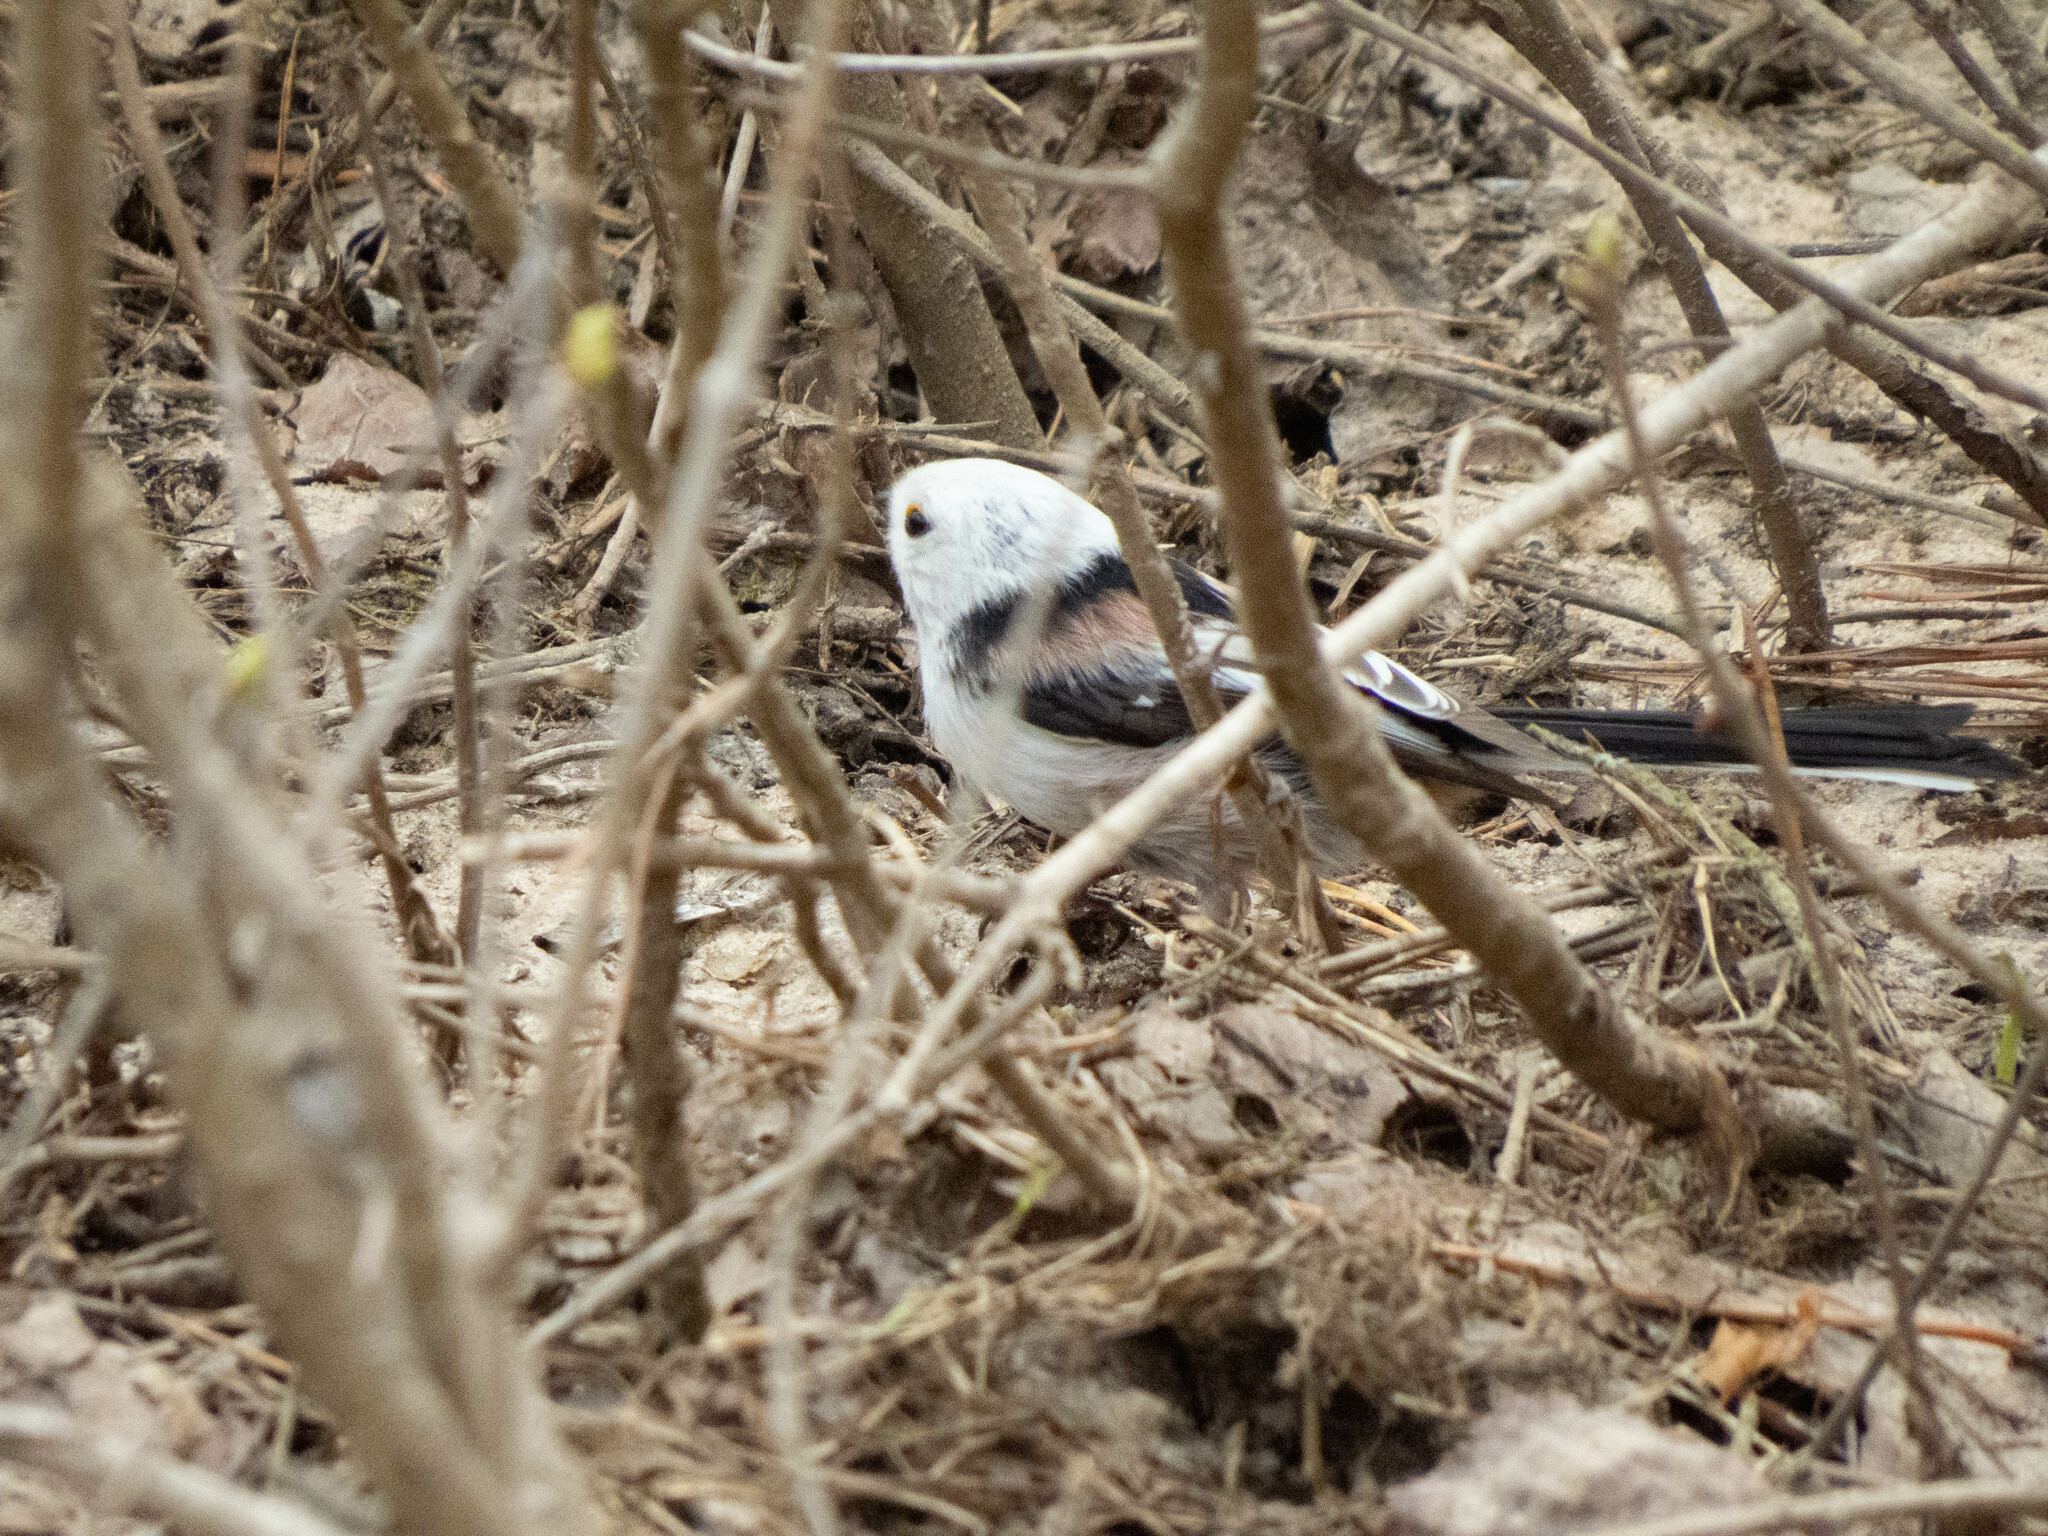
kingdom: Animalia
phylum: Chordata
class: Aves
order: Passeriformes
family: Aegithalidae
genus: Aegithalos
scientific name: Aegithalos caudatus
